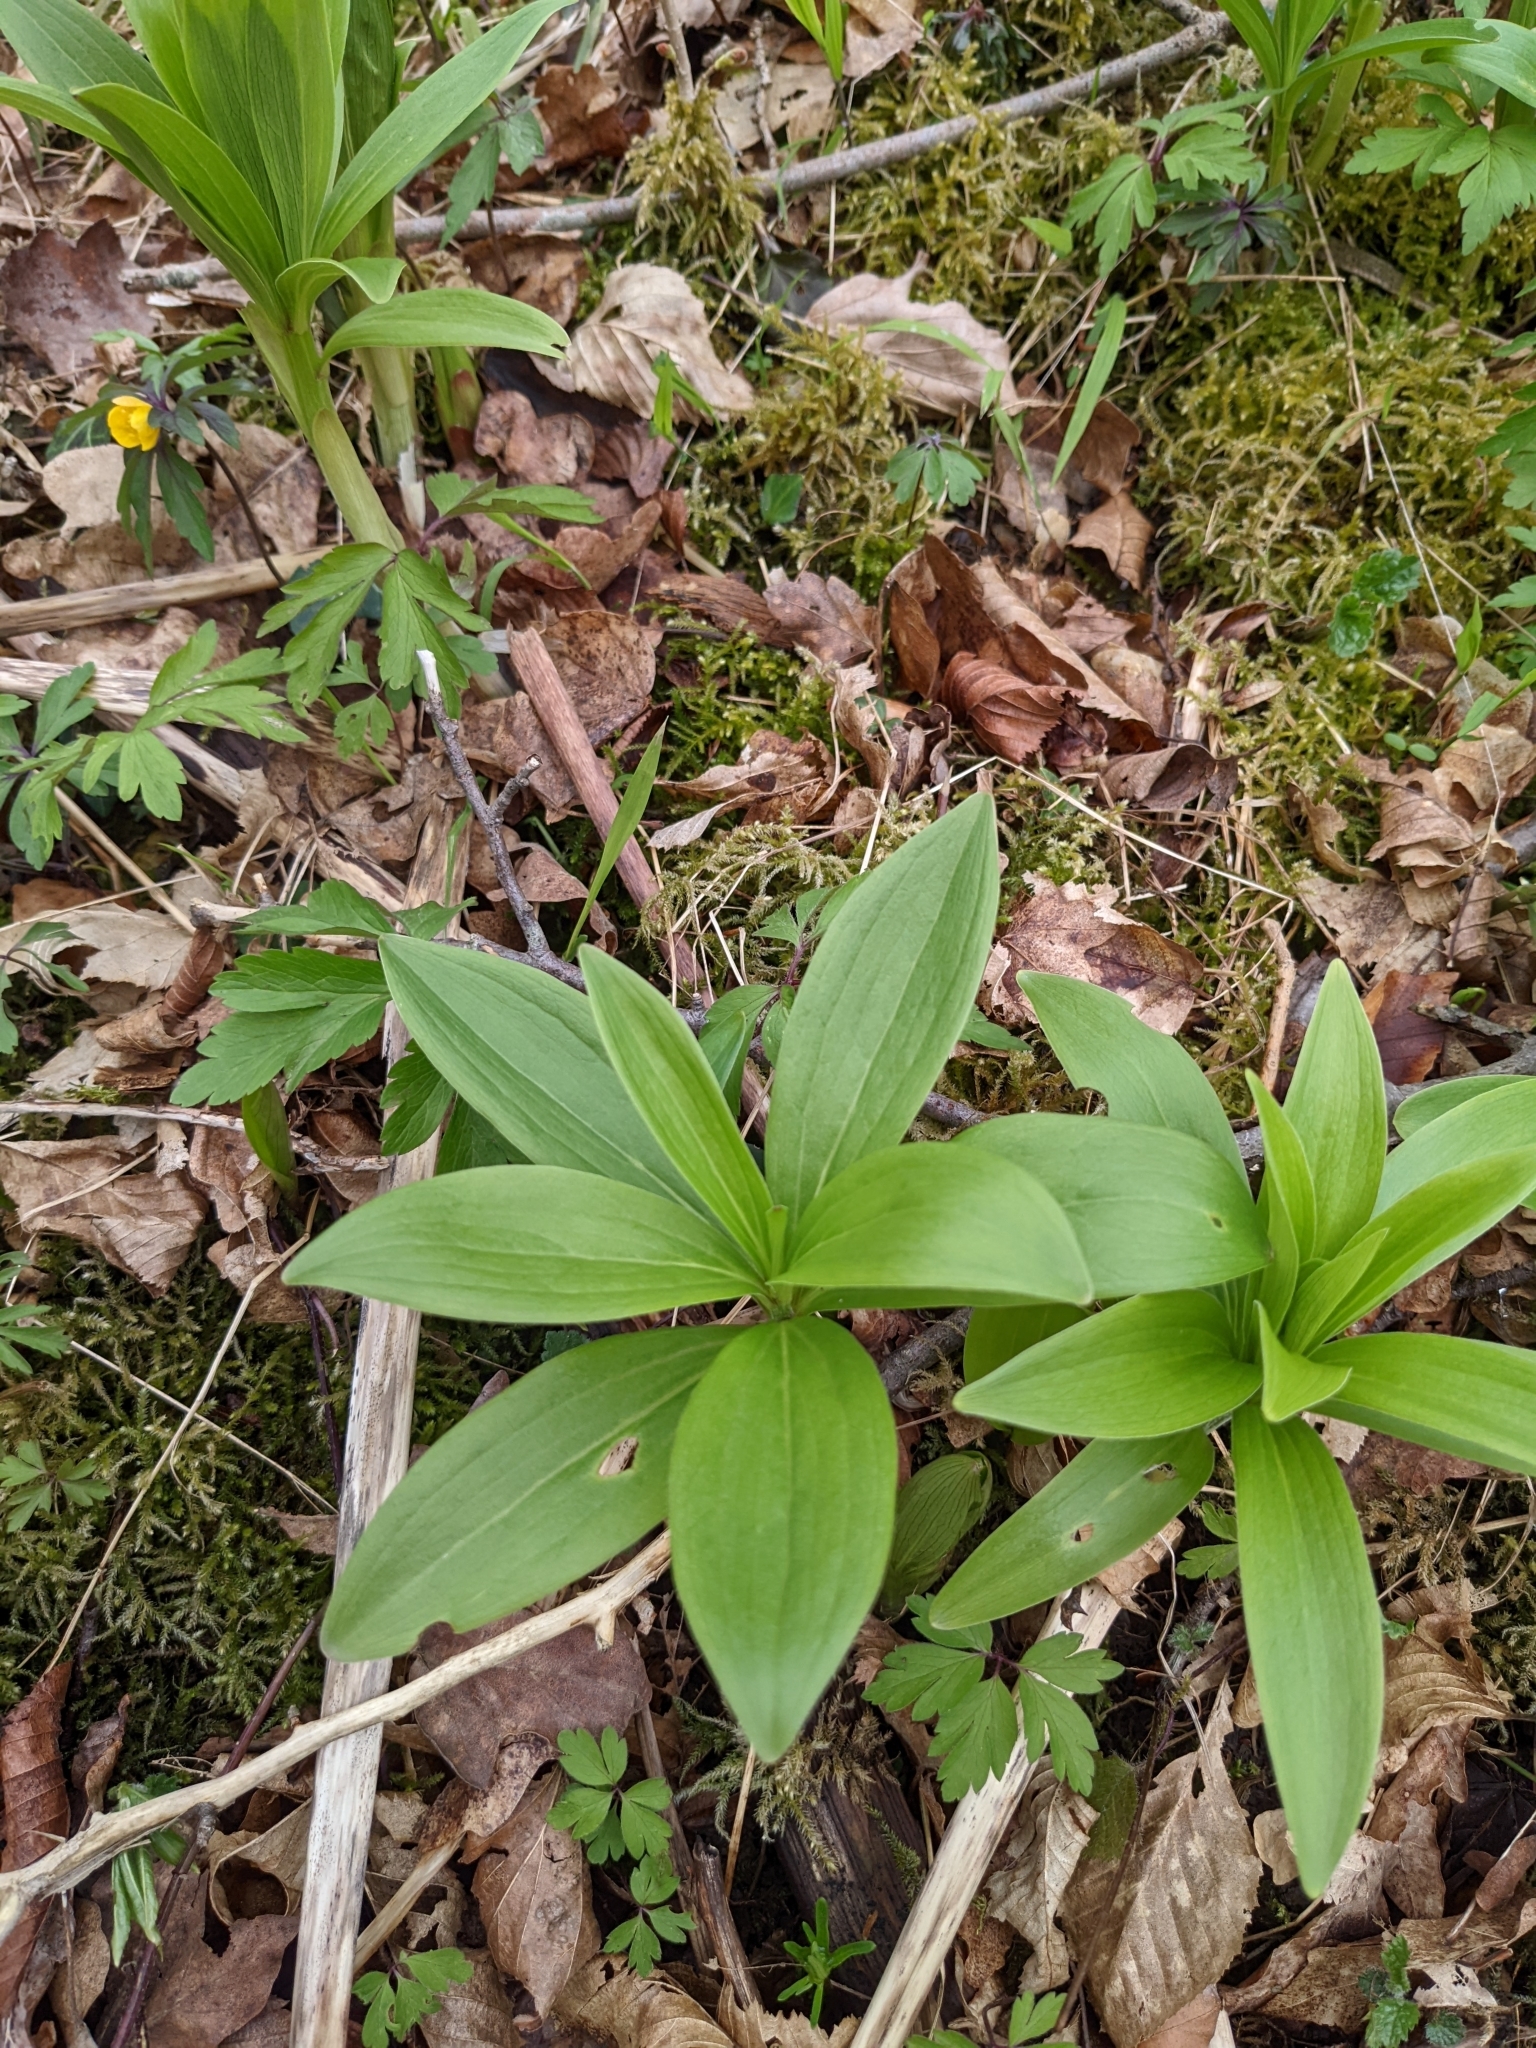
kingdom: Plantae
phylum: Tracheophyta
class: Liliopsida
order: Liliales
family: Liliaceae
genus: Lilium
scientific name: Lilium martagon
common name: Martagon lily
